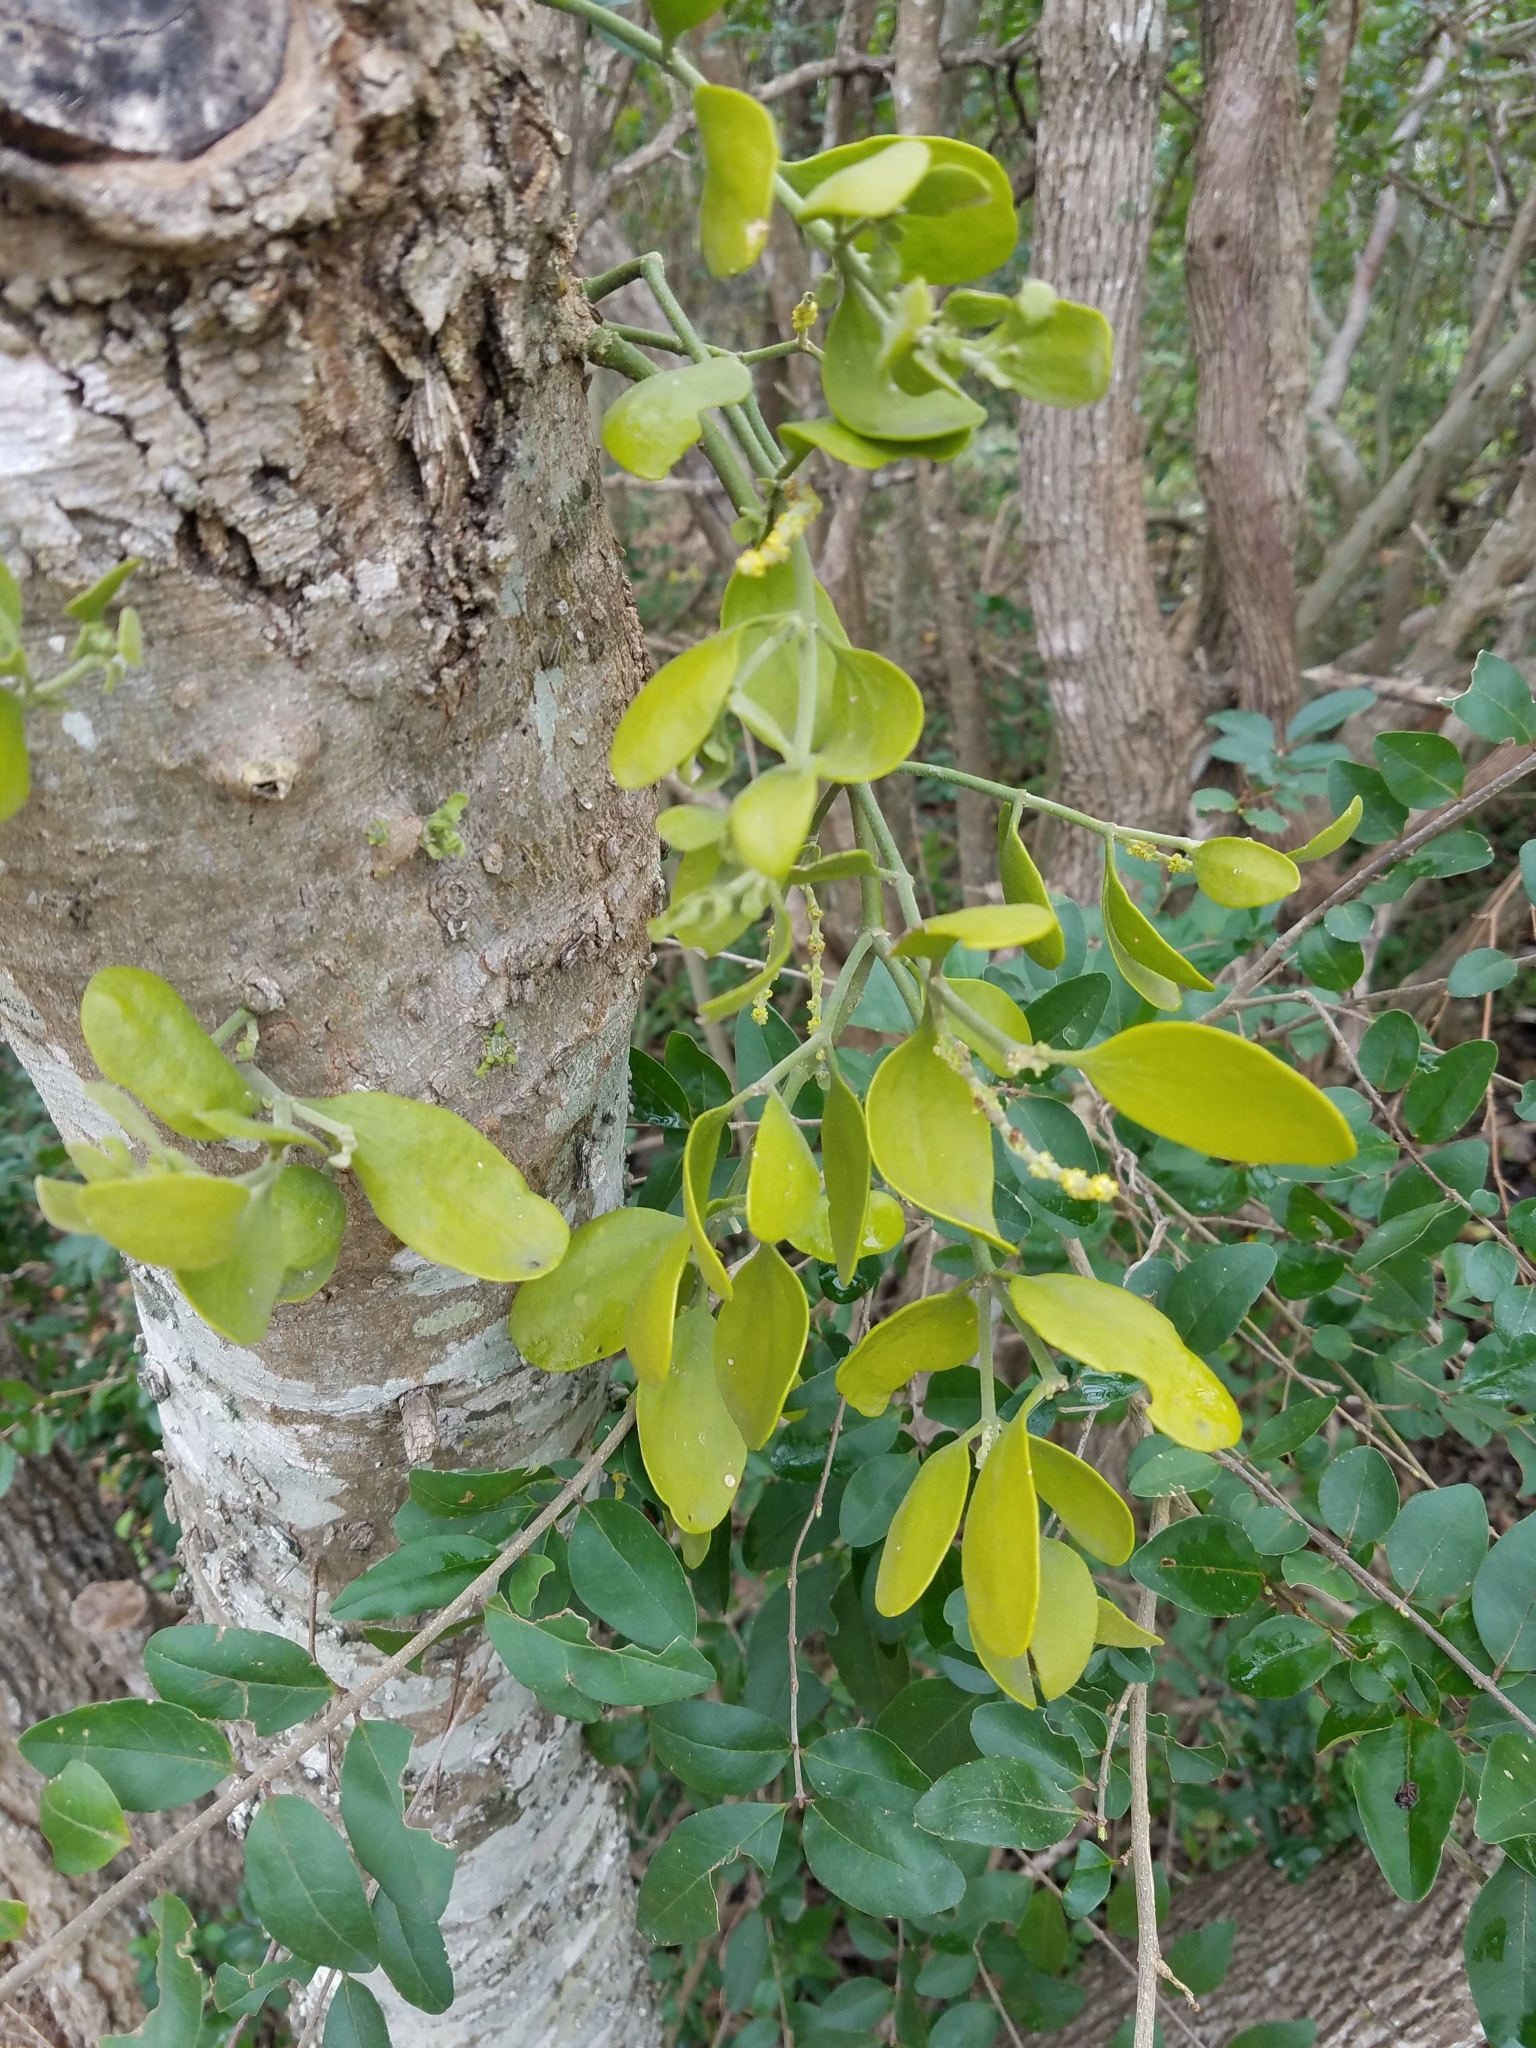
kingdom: Plantae
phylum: Tracheophyta
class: Magnoliopsida
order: Santalales
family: Viscaceae
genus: Phoradendron
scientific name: Phoradendron leucarpum
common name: Pacific mistletoe
